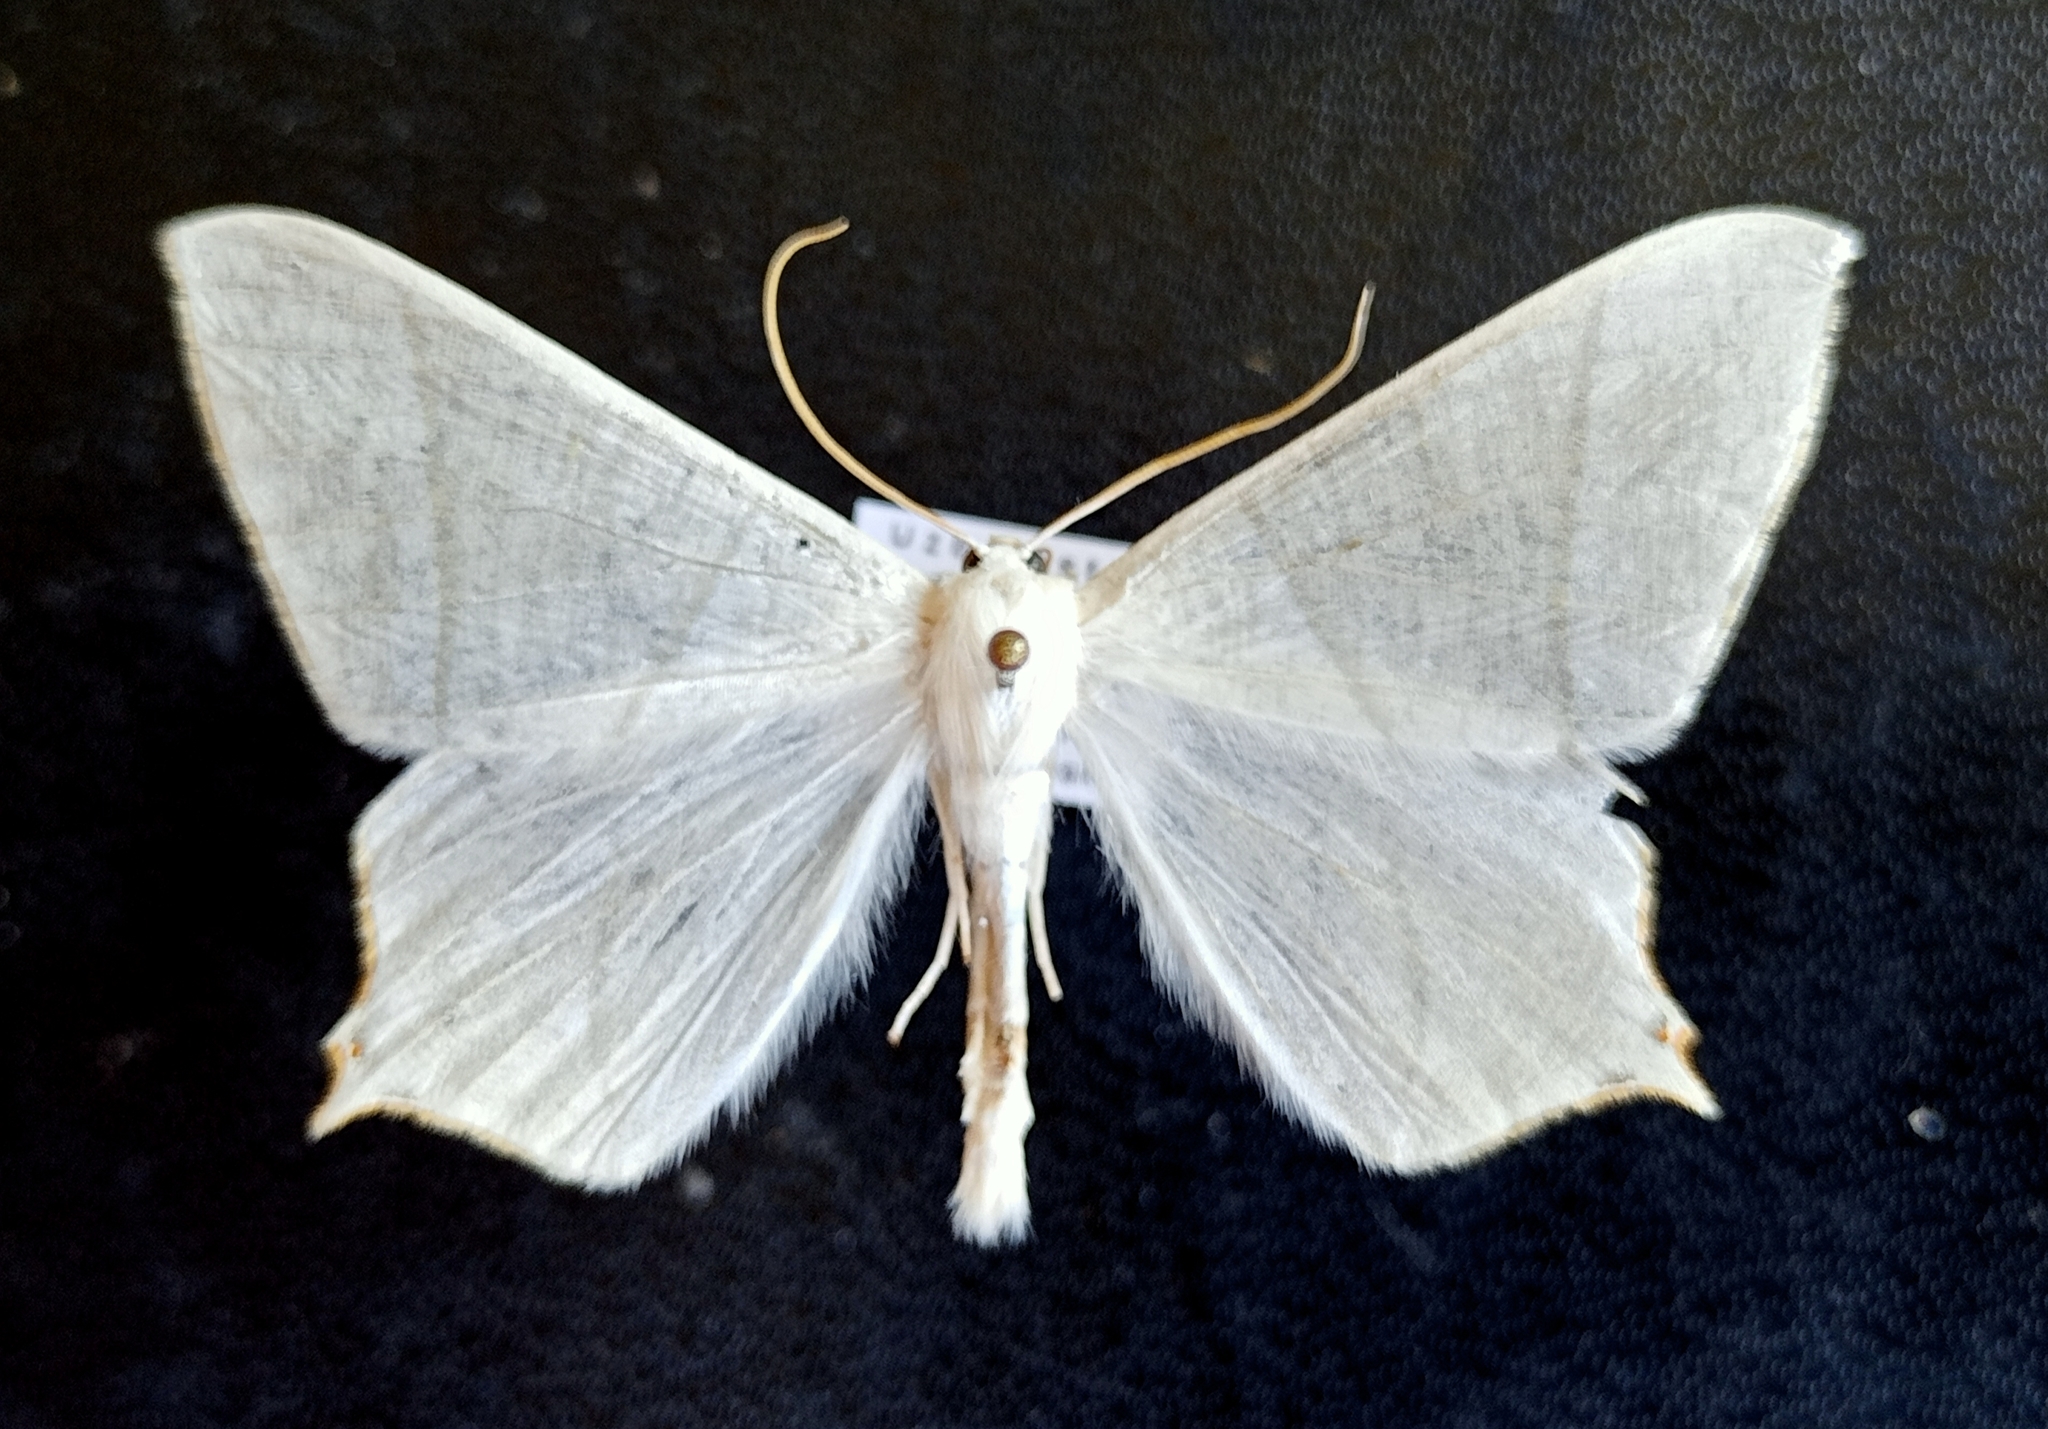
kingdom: Animalia
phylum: Arthropoda
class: Insecta
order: Lepidoptera
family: Geometridae
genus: Ourapteryx
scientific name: Ourapteryx purissima
